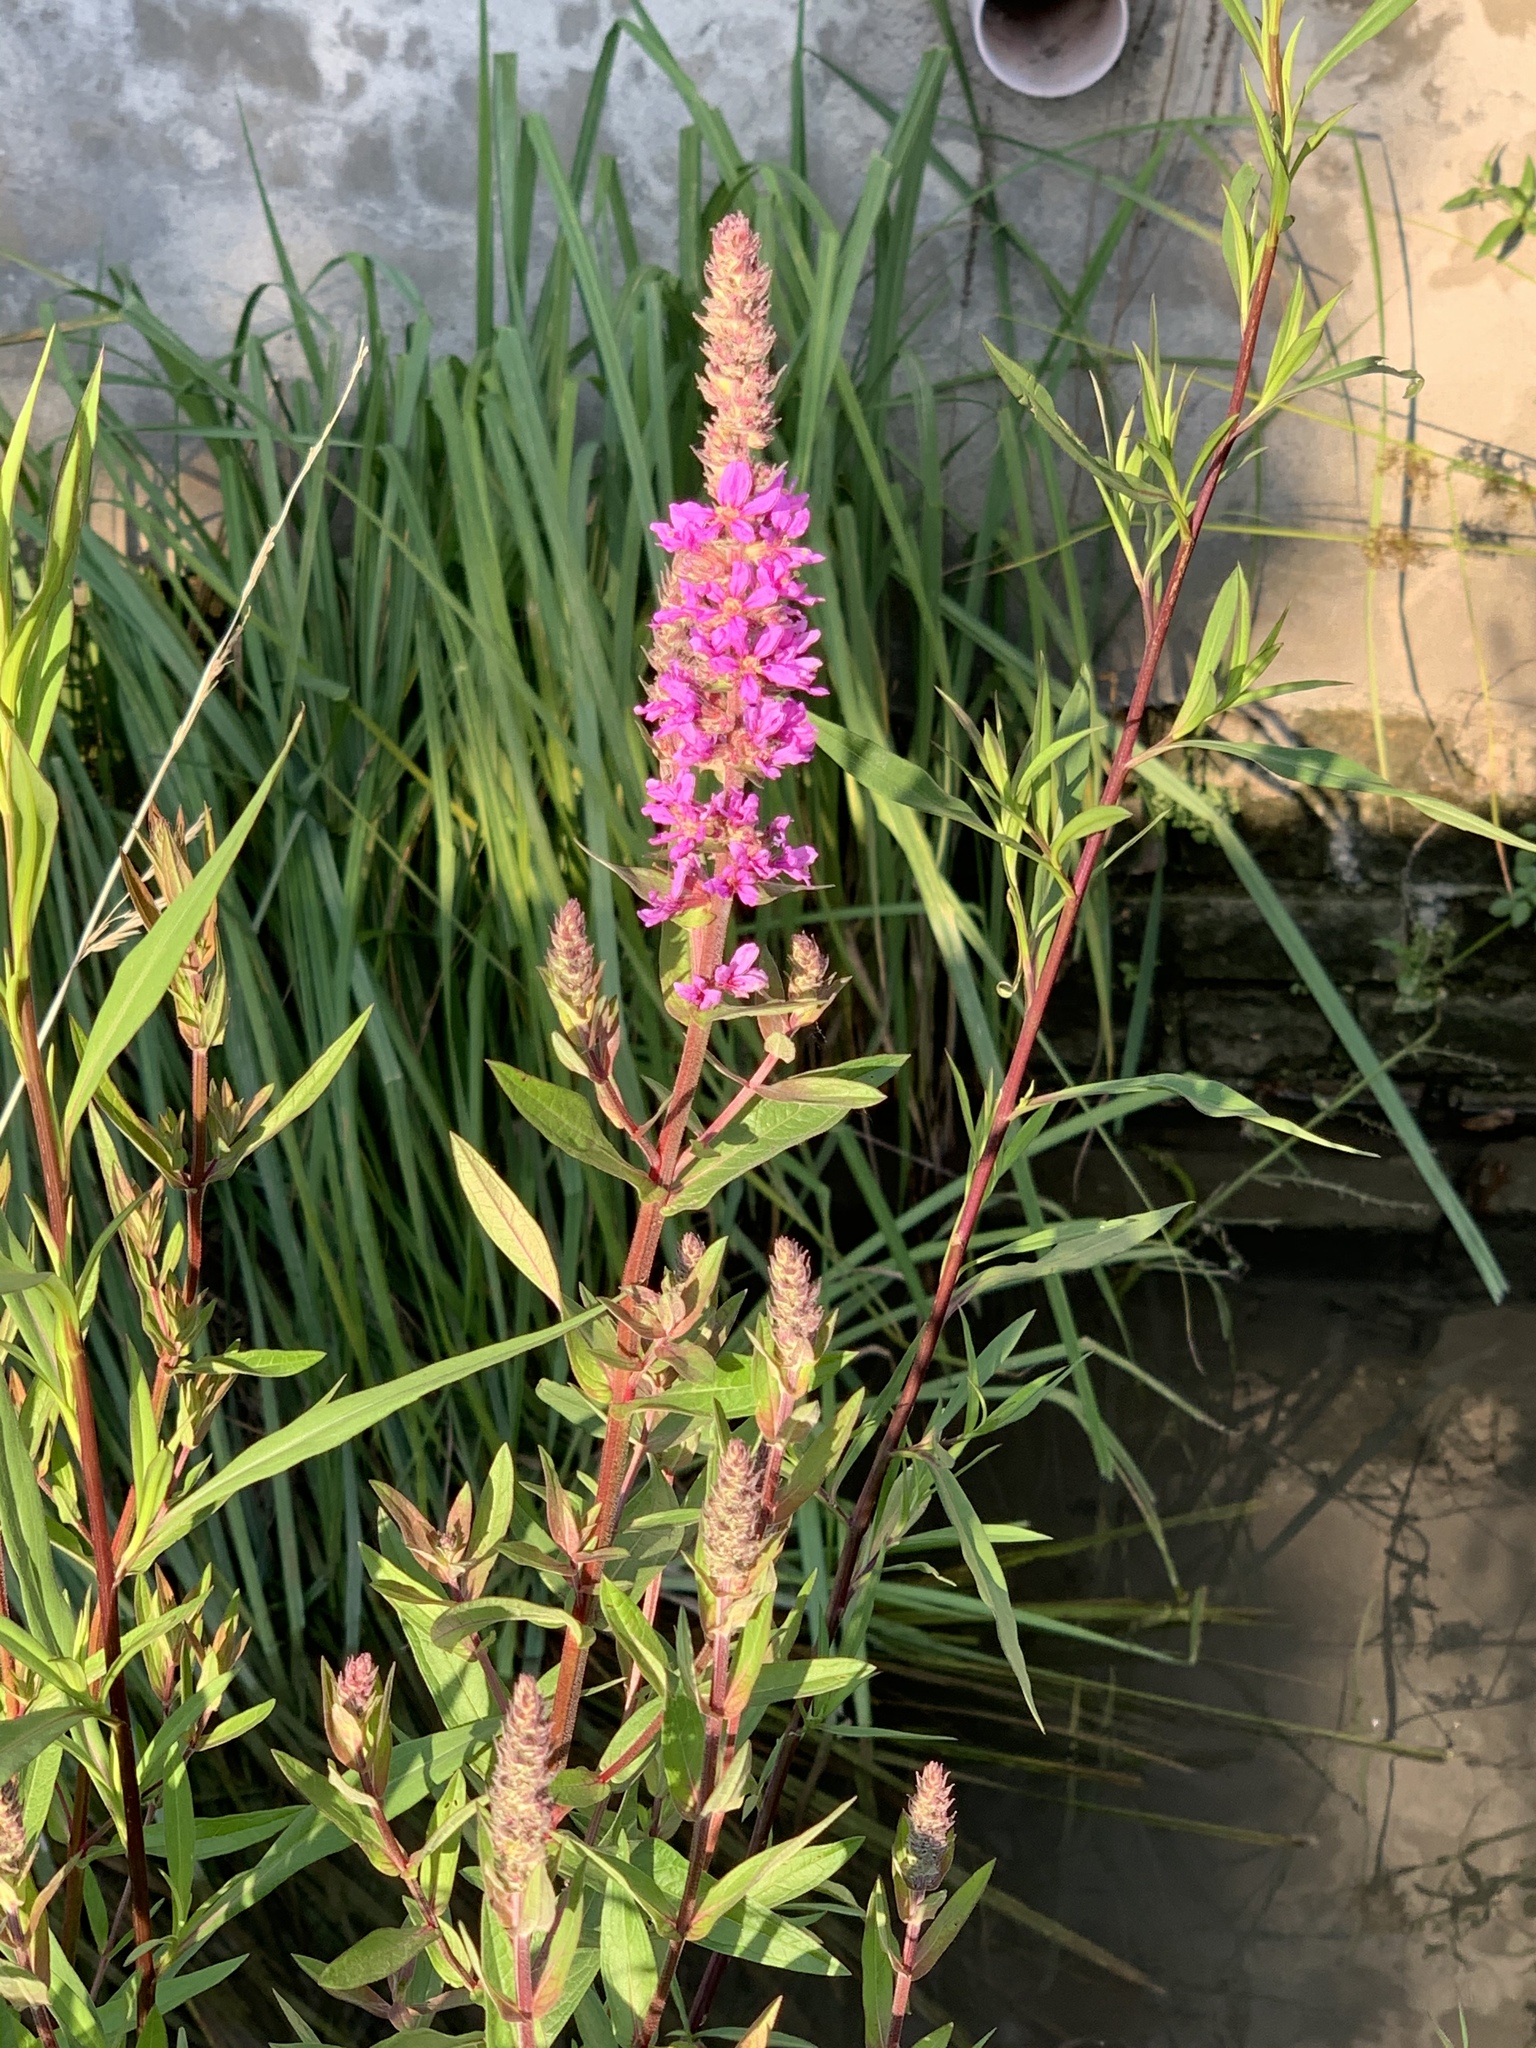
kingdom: Plantae
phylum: Tracheophyta
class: Magnoliopsida
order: Myrtales
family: Lythraceae
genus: Lythrum
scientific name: Lythrum salicaria
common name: Purple loosestrife
